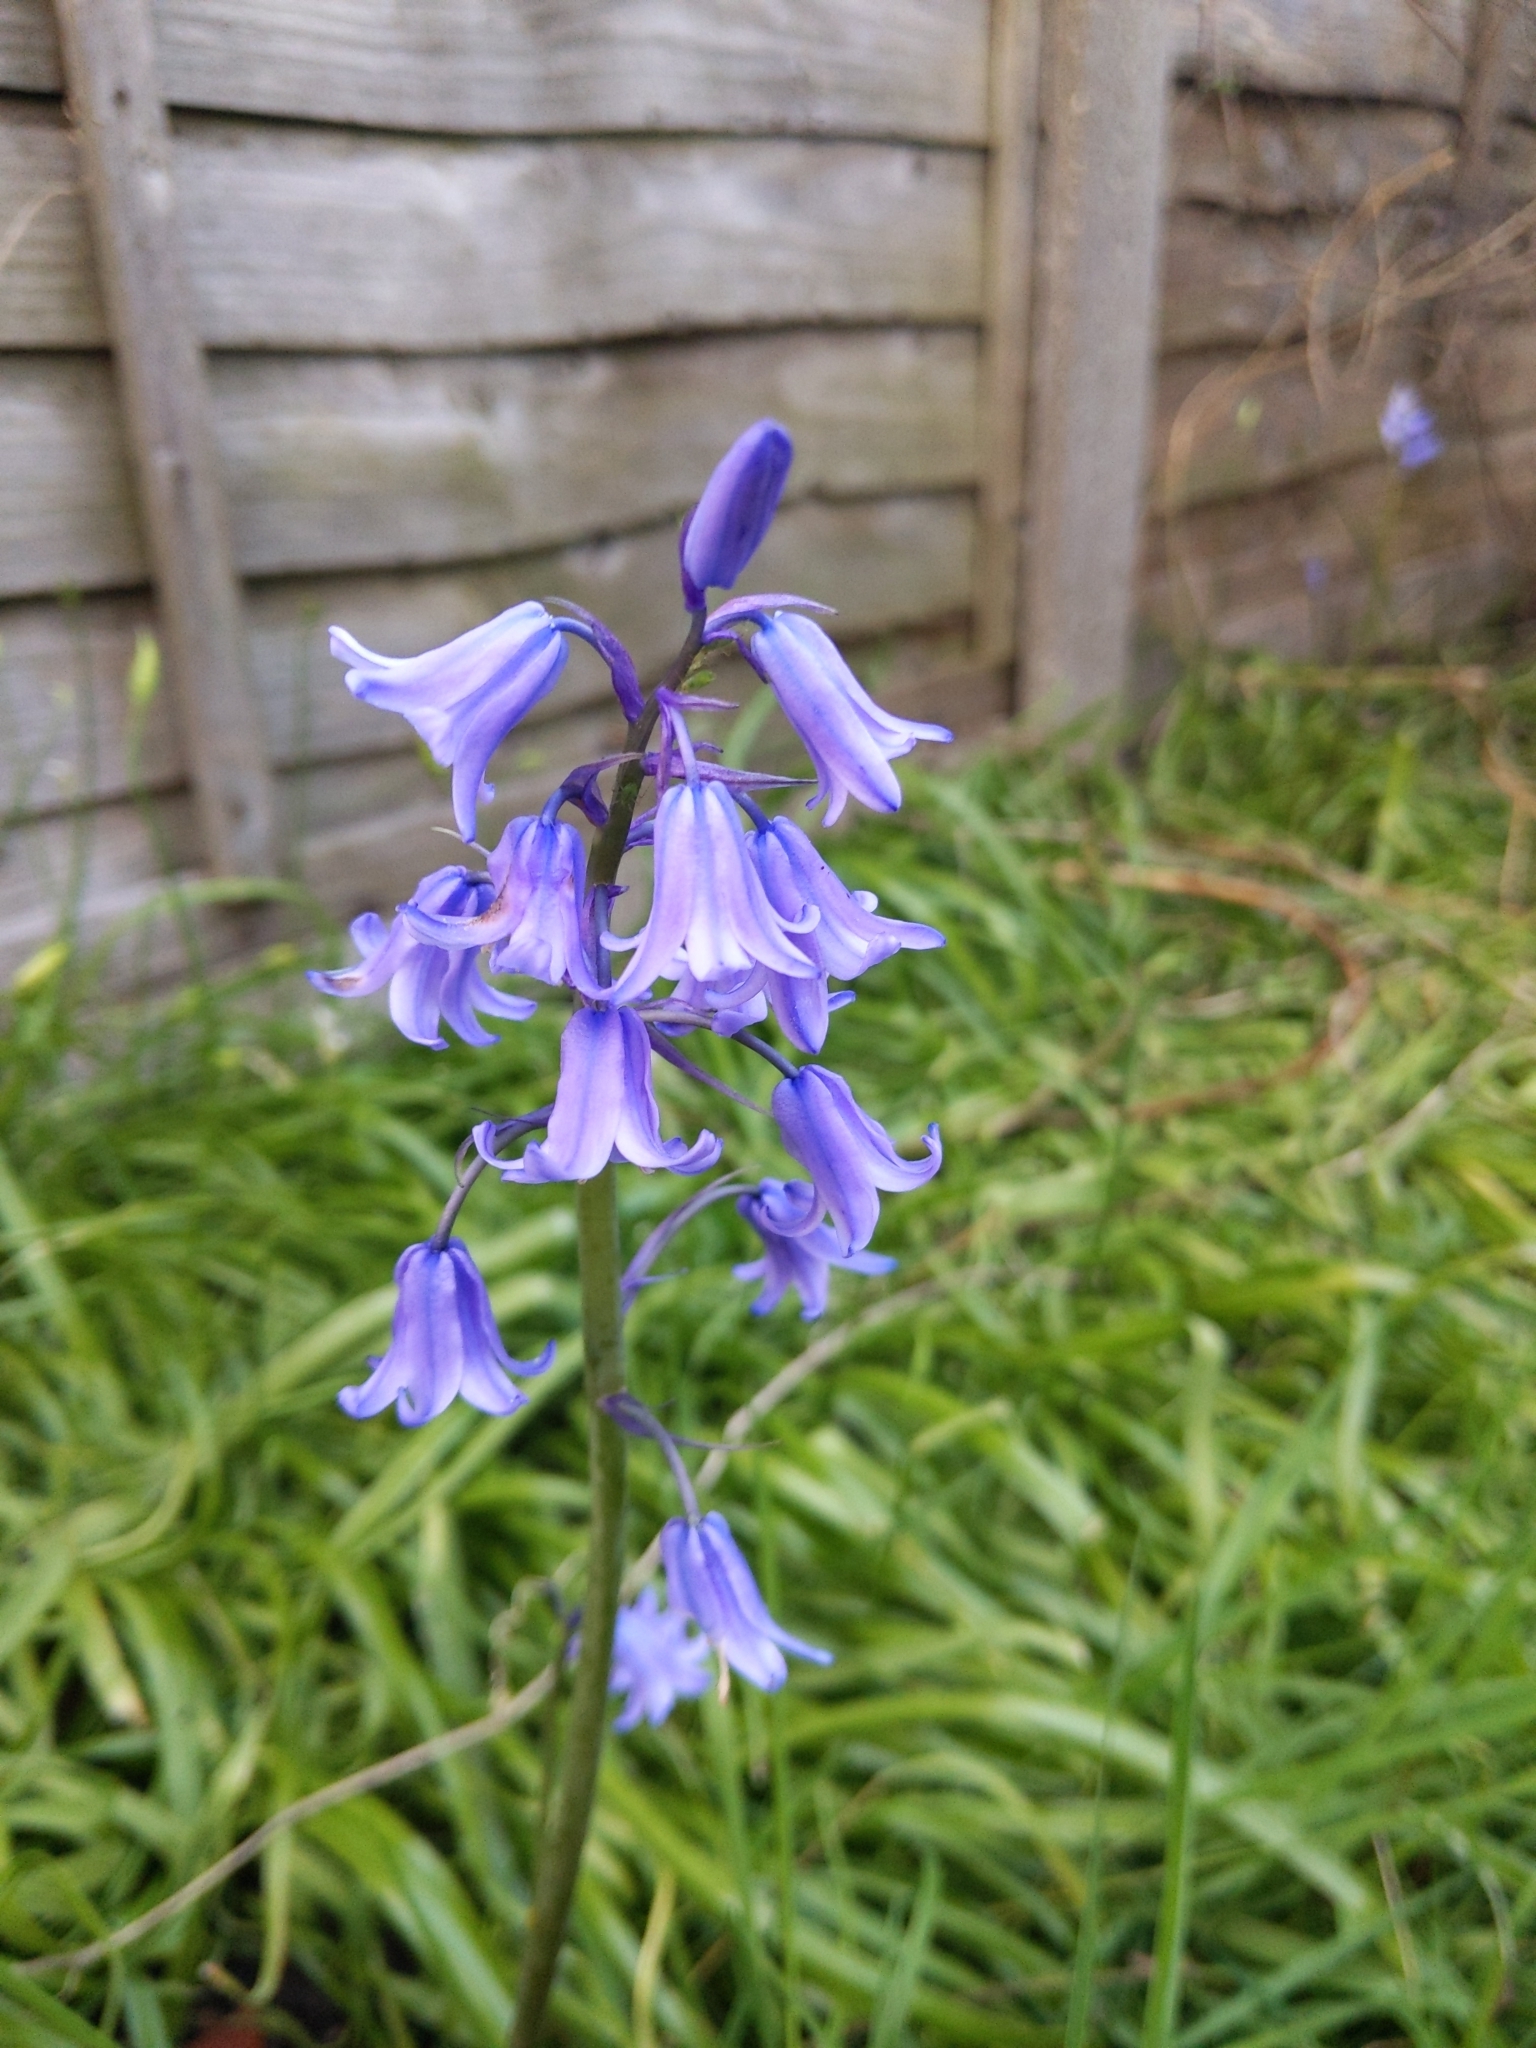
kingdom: Plantae
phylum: Tracheophyta
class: Liliopsida
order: Asparagales
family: Asparagaceae
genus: Hyacinthoides
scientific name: Hyacinthoides hispanica
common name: Spanish bluebell
